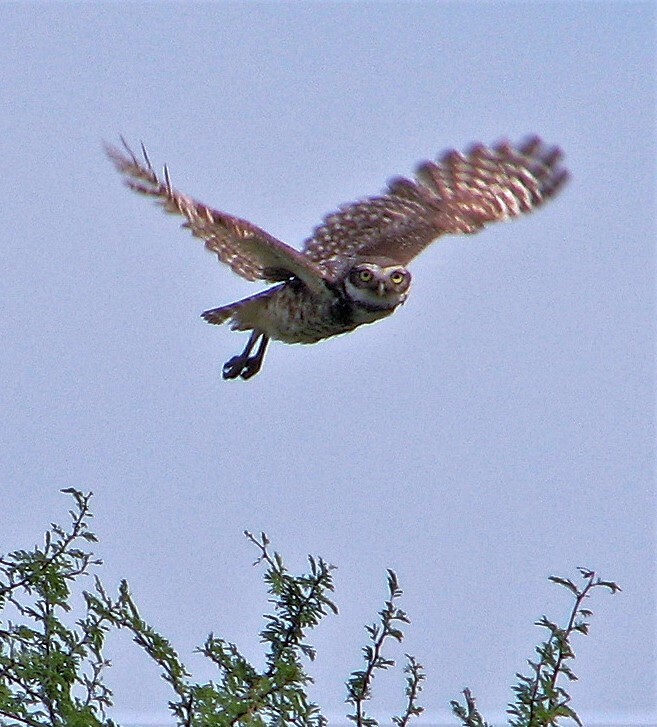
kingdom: Animalia
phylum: Chordata
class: Aves
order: Strigiformes
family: Strigidae
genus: Athene
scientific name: Athene cunicularia
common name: Burrowing owl
